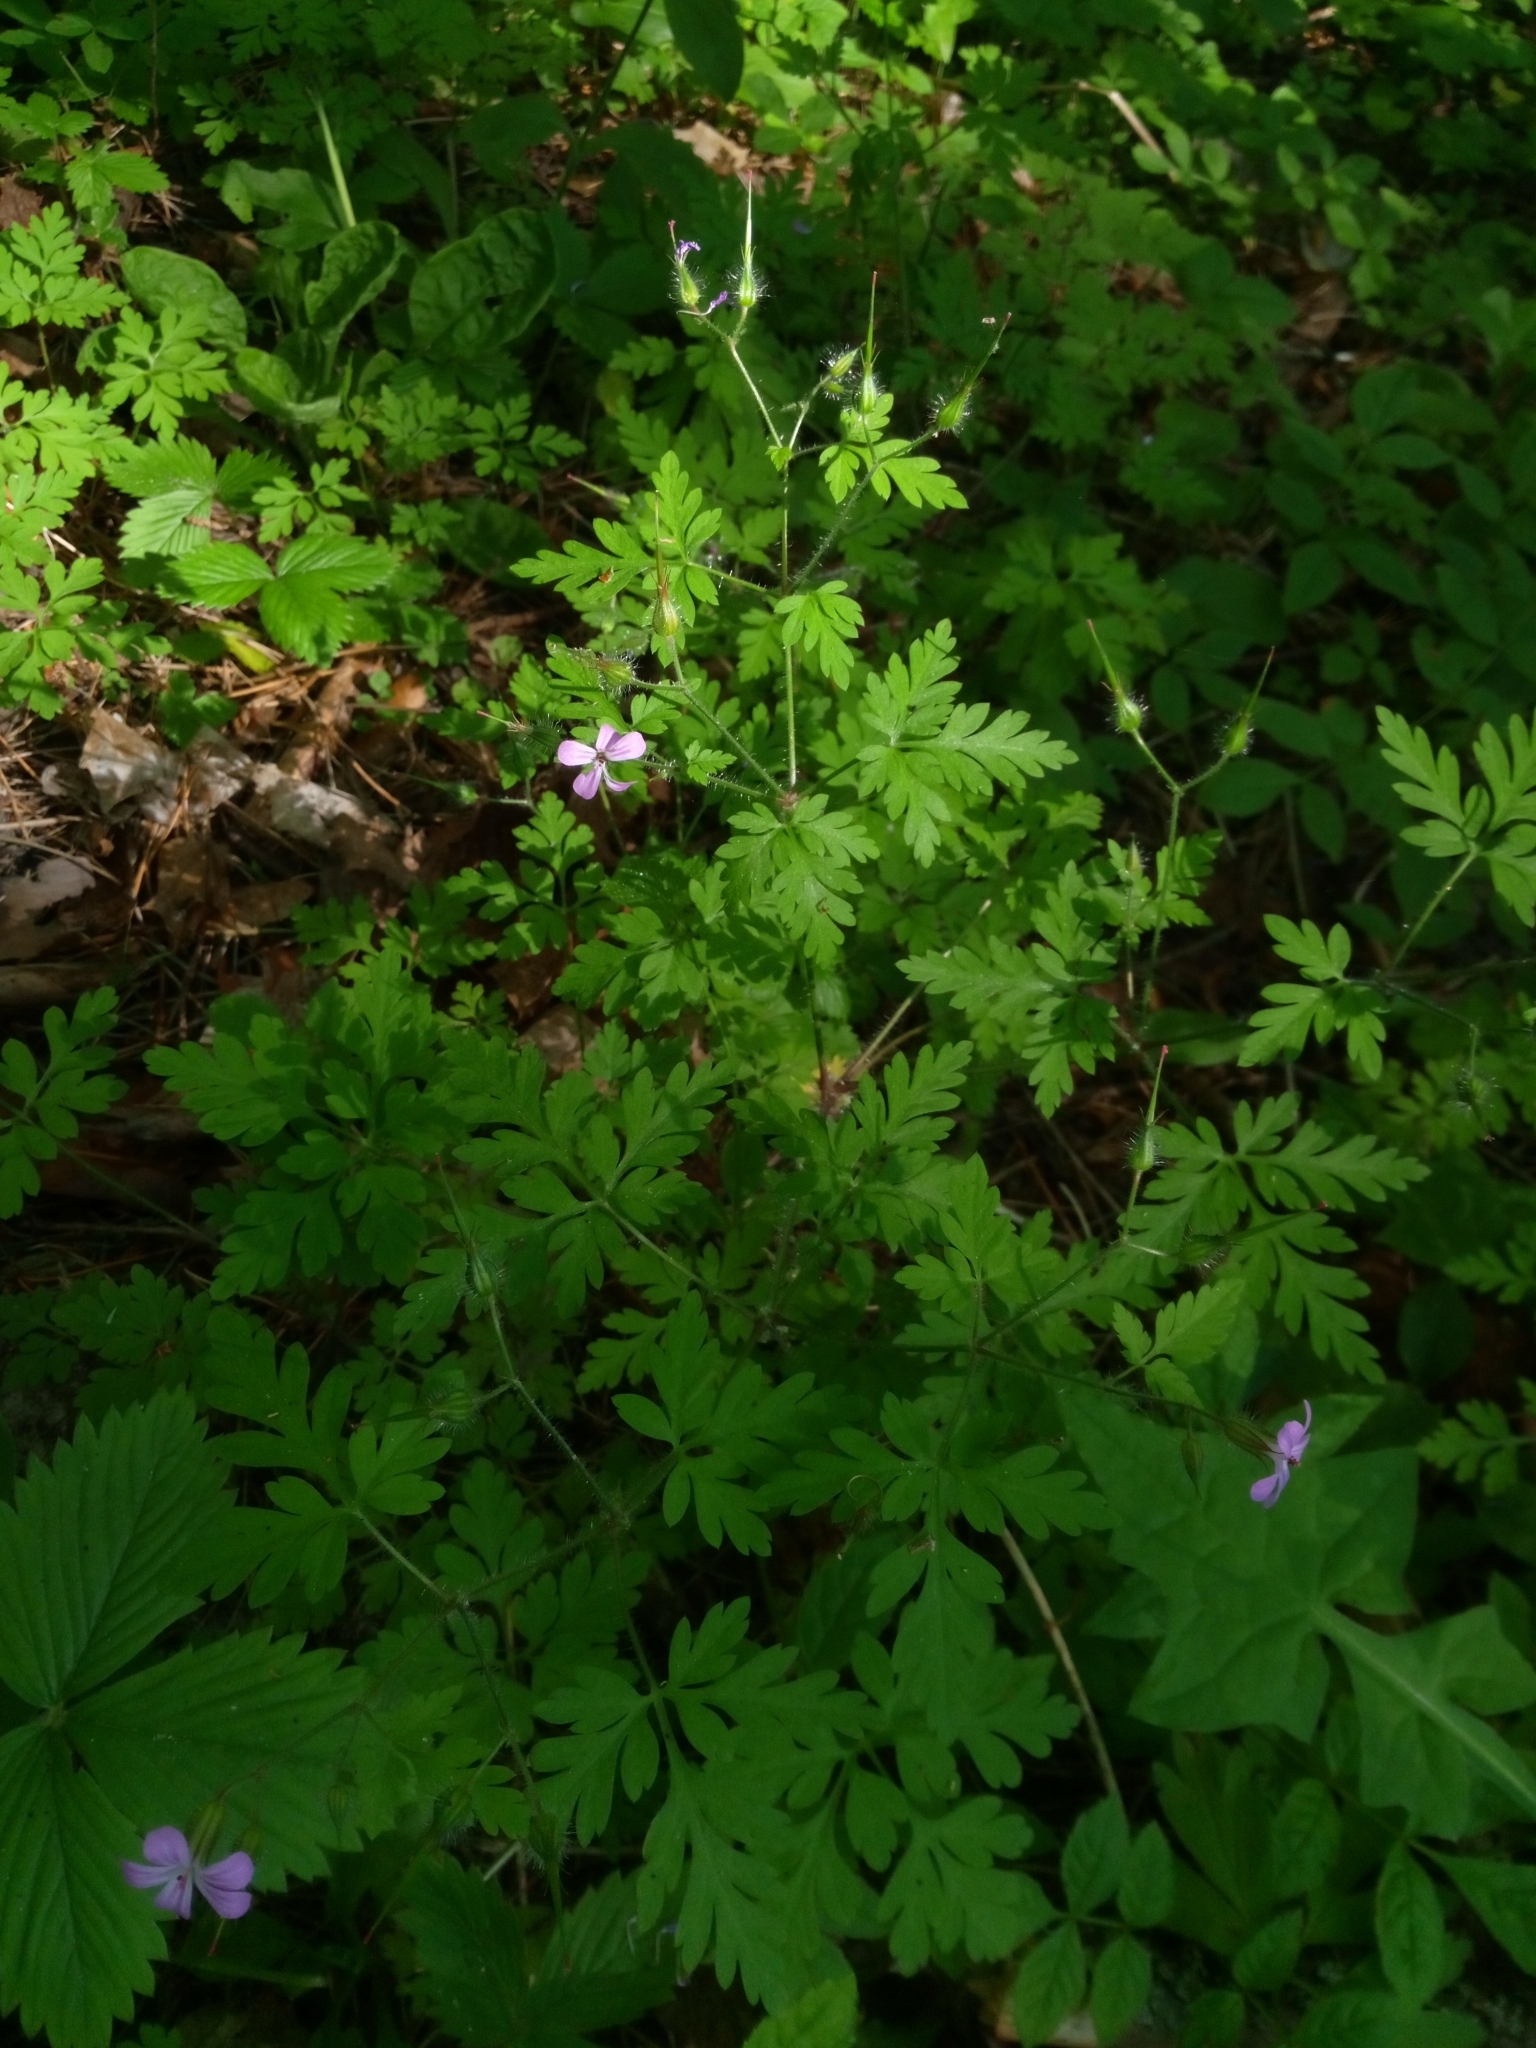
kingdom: Plantae
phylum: Tracheophyta
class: Magnoliopsida
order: Geraniales
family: Geraniaceae
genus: Geranium
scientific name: Geranium robertianum
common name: Herb-robert
